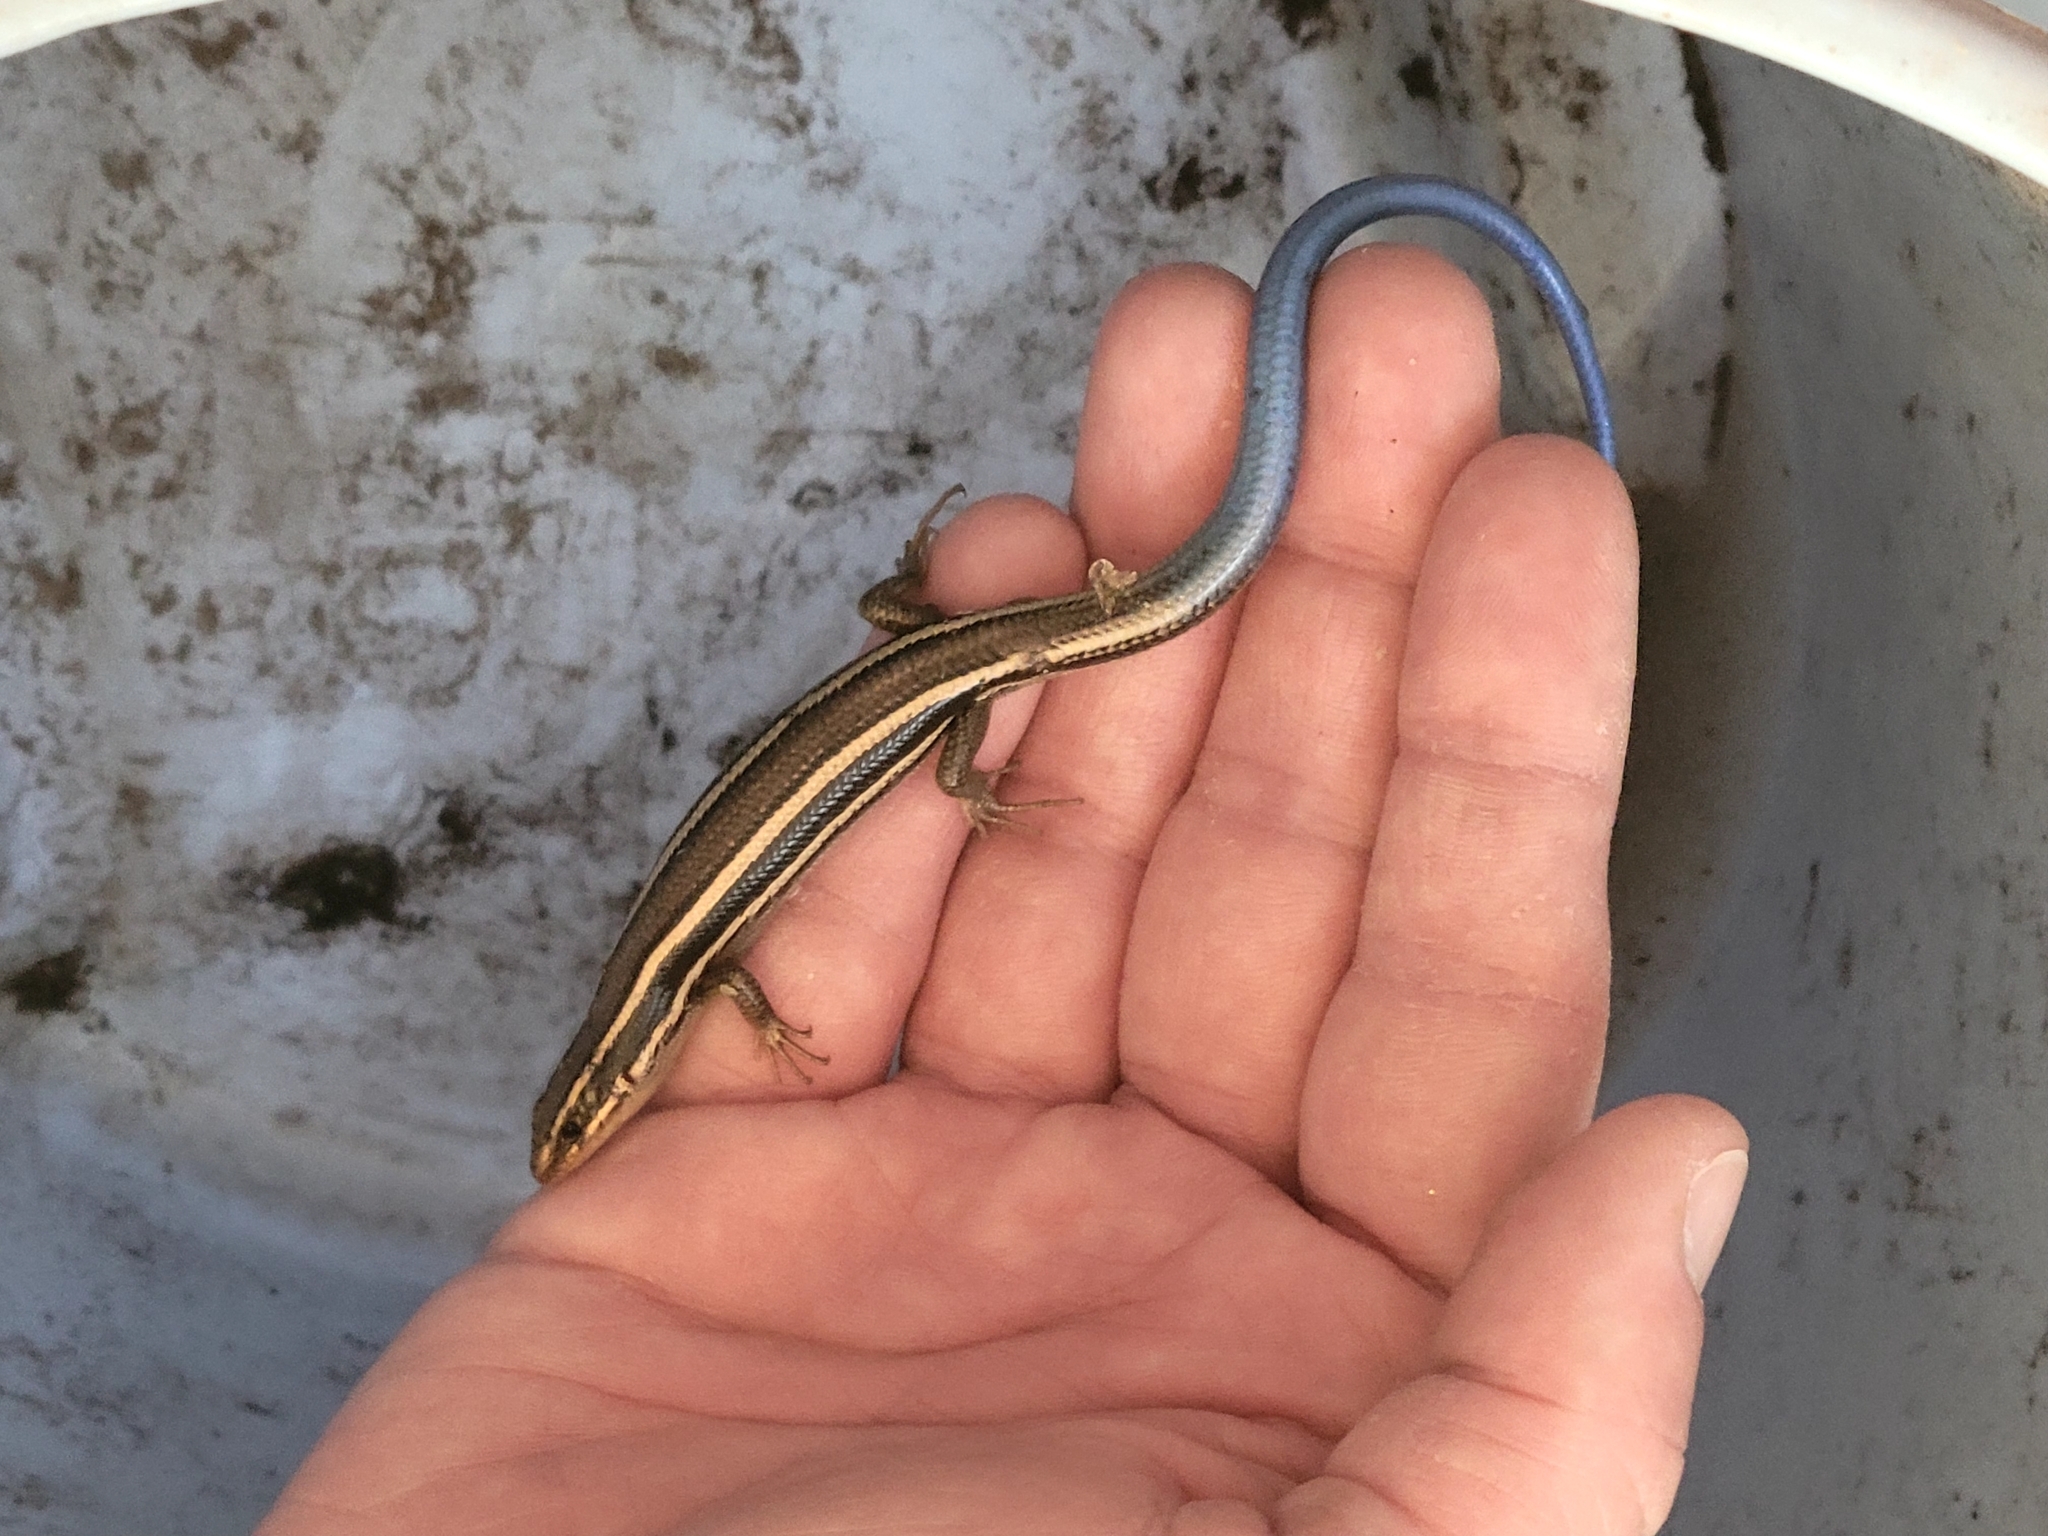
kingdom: Animalia
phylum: Chordata
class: Squamata
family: Scincidae
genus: Plestiodon
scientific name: Plestiodon skiltonianus
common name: Coronado island skink [interparietalis]
